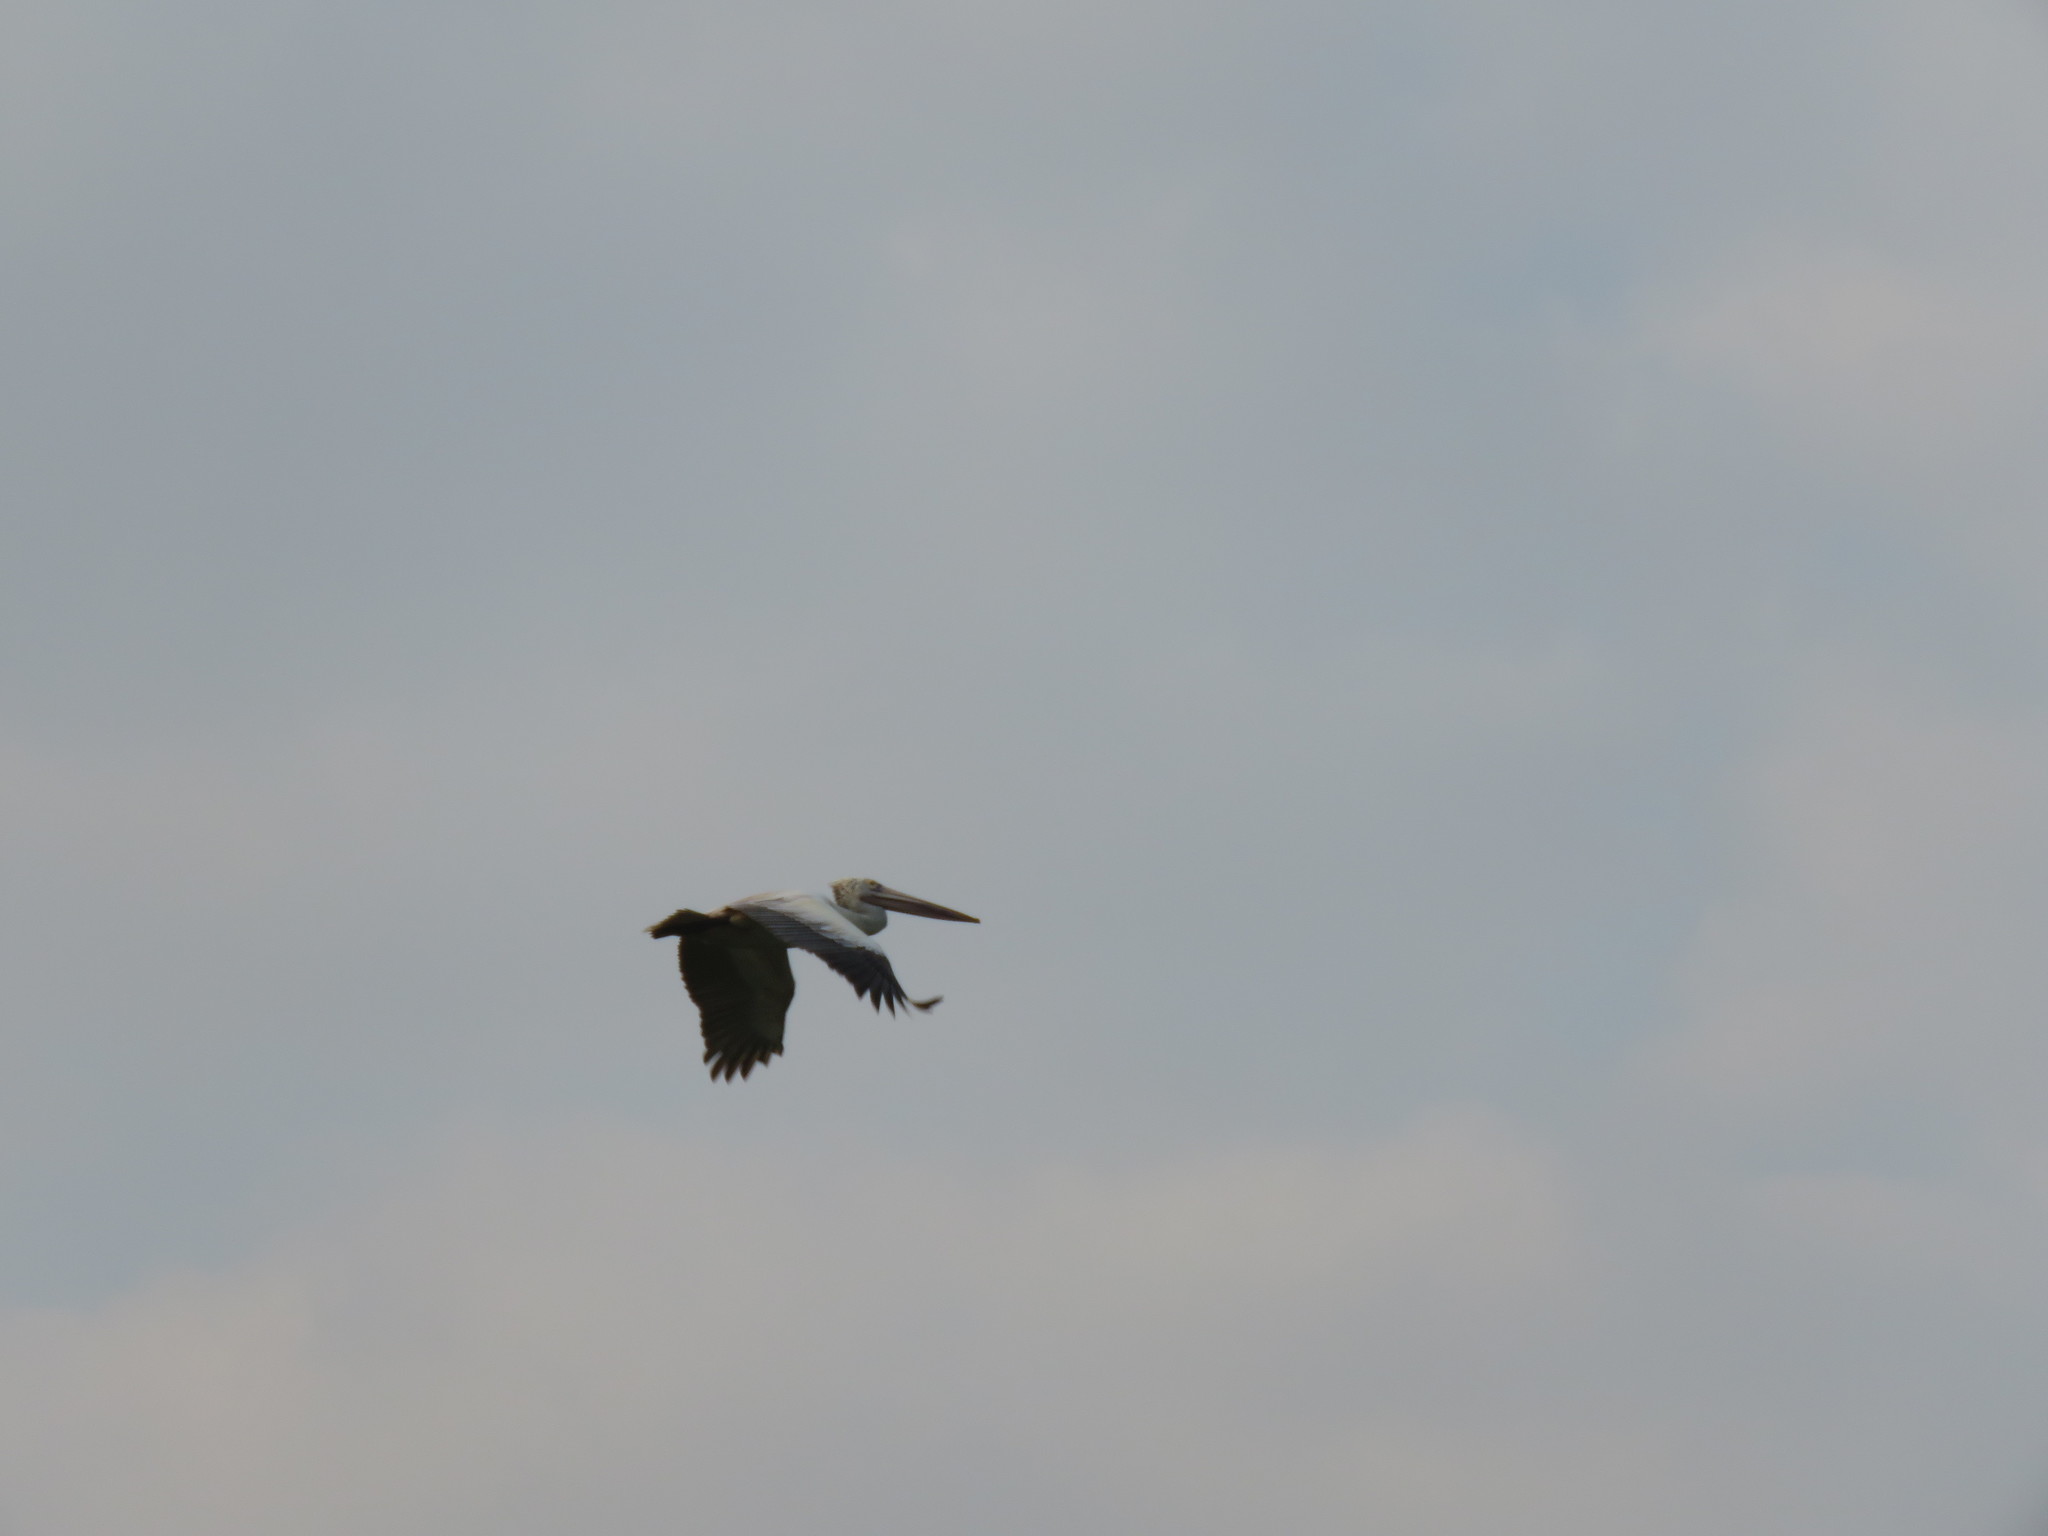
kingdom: Animalia
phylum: Chordata
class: Aves
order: Pelecaniformes
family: Pelecanidae
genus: Pelecanus
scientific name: Pelecanus philippensis
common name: Spot-billed pelican
